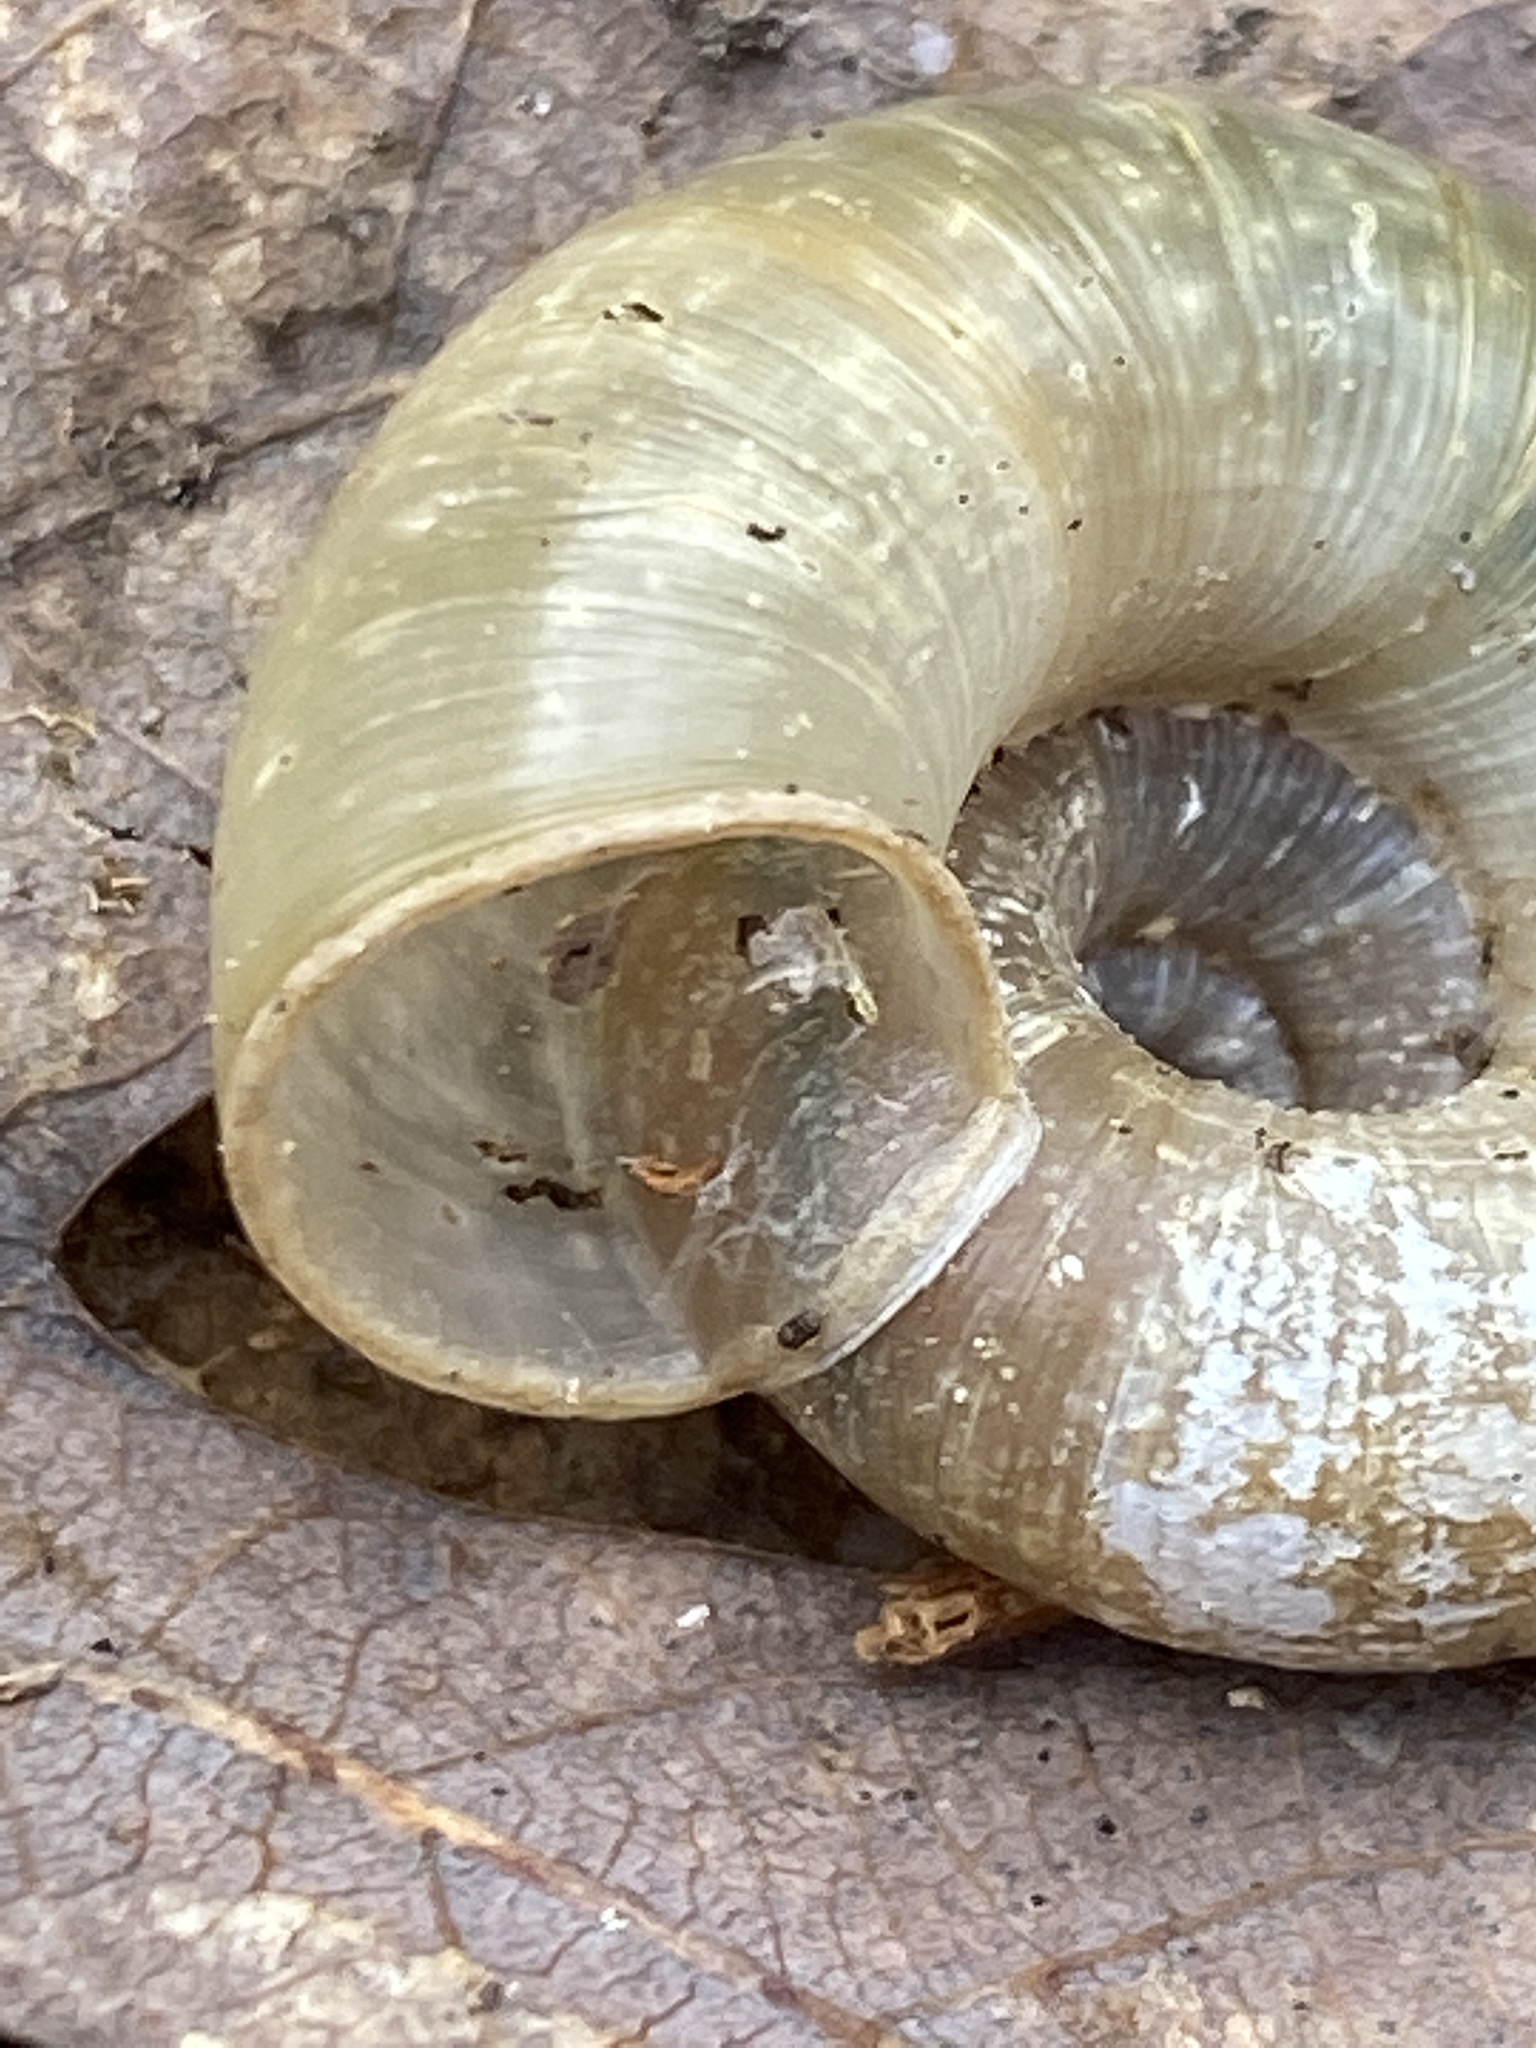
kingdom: Animalia
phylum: Mollusca
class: Gastropoda
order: Stylommatophora
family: Haplotrematidae
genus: Haplotrema
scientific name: Haplotrema concavum
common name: Gray-foot lancetooth
